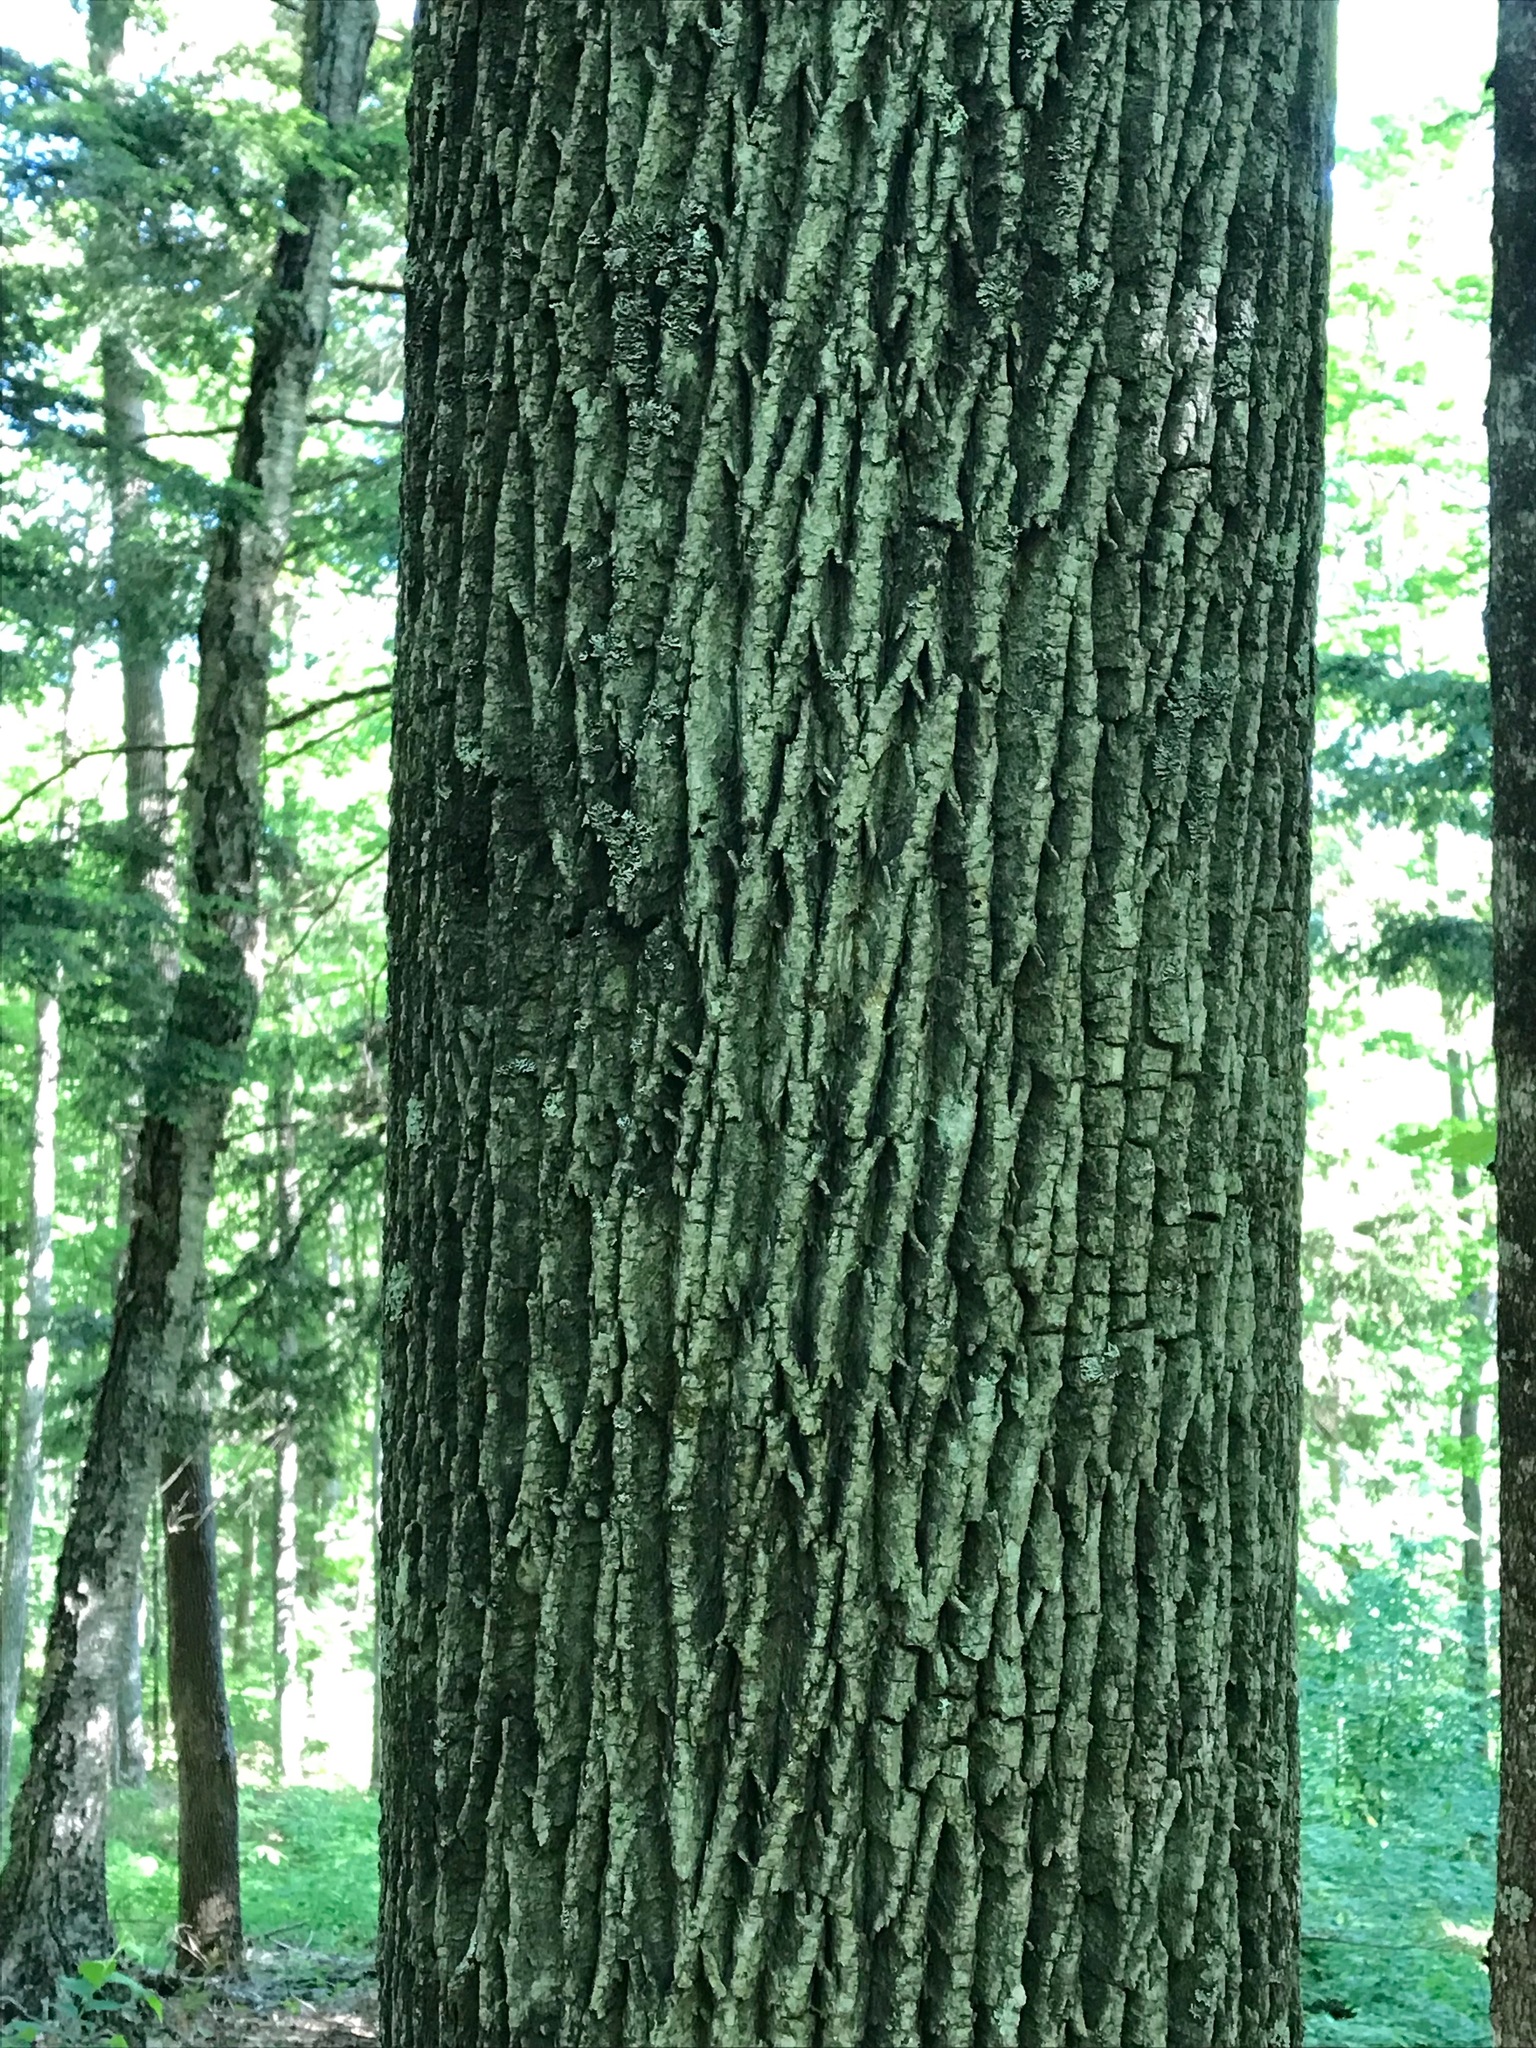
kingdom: Plantae
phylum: Tracheophyta
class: Magnoliopsida
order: Lamiales
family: Oleaceae
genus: Fraxinus
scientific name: Fraxinus americana
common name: White ash
